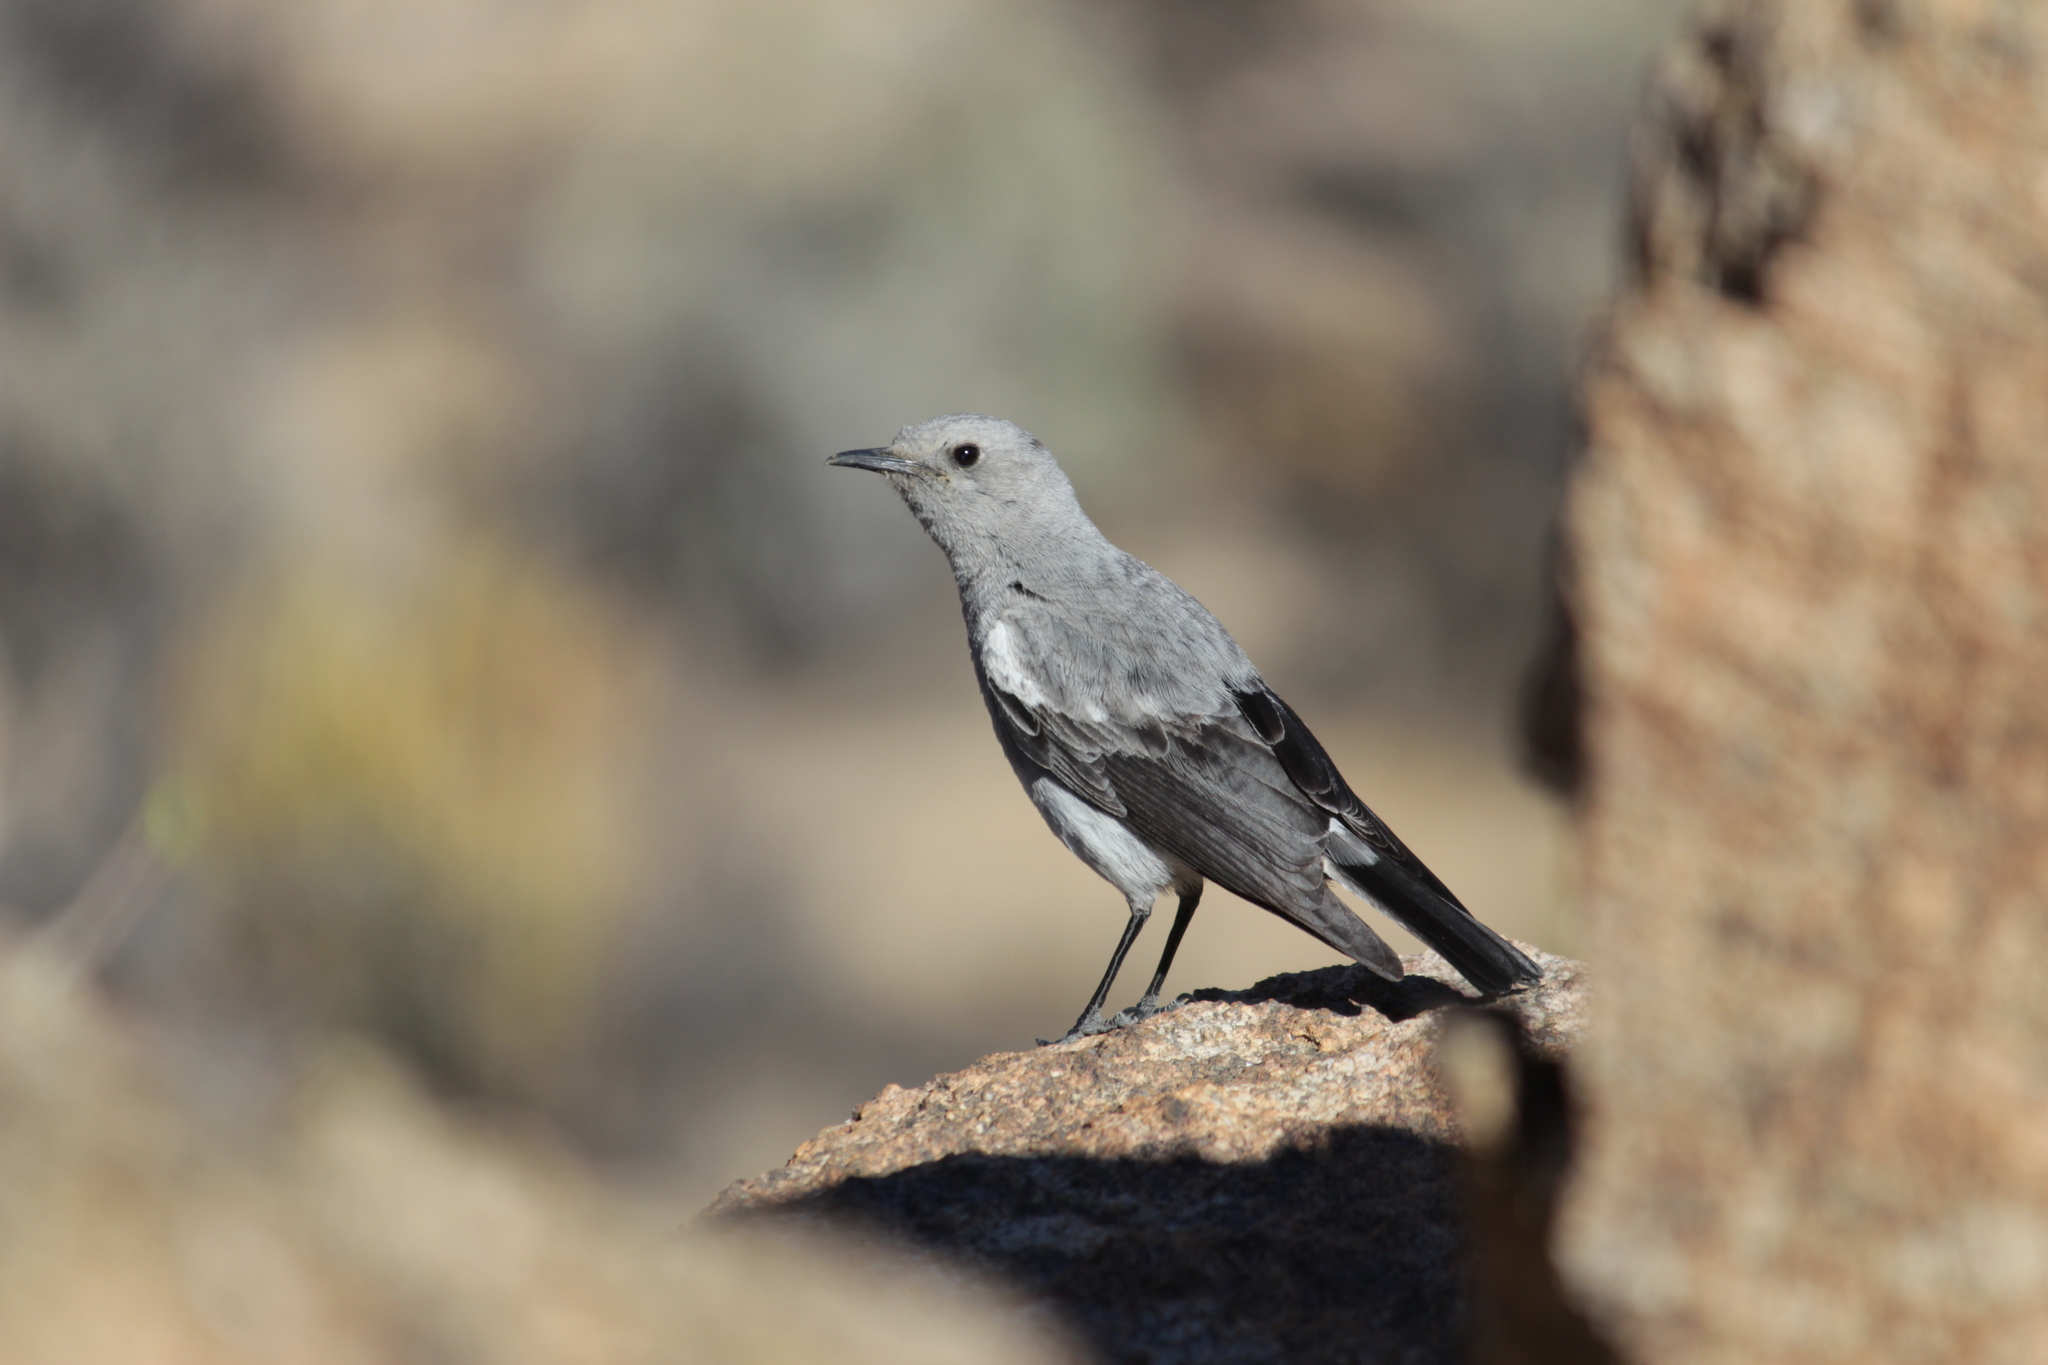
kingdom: Animalia
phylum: Chordata
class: Aves
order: Passeriformes
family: Muscicapidae
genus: Oenanthe
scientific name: Oenanthe monticola
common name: Mountain wheatear
